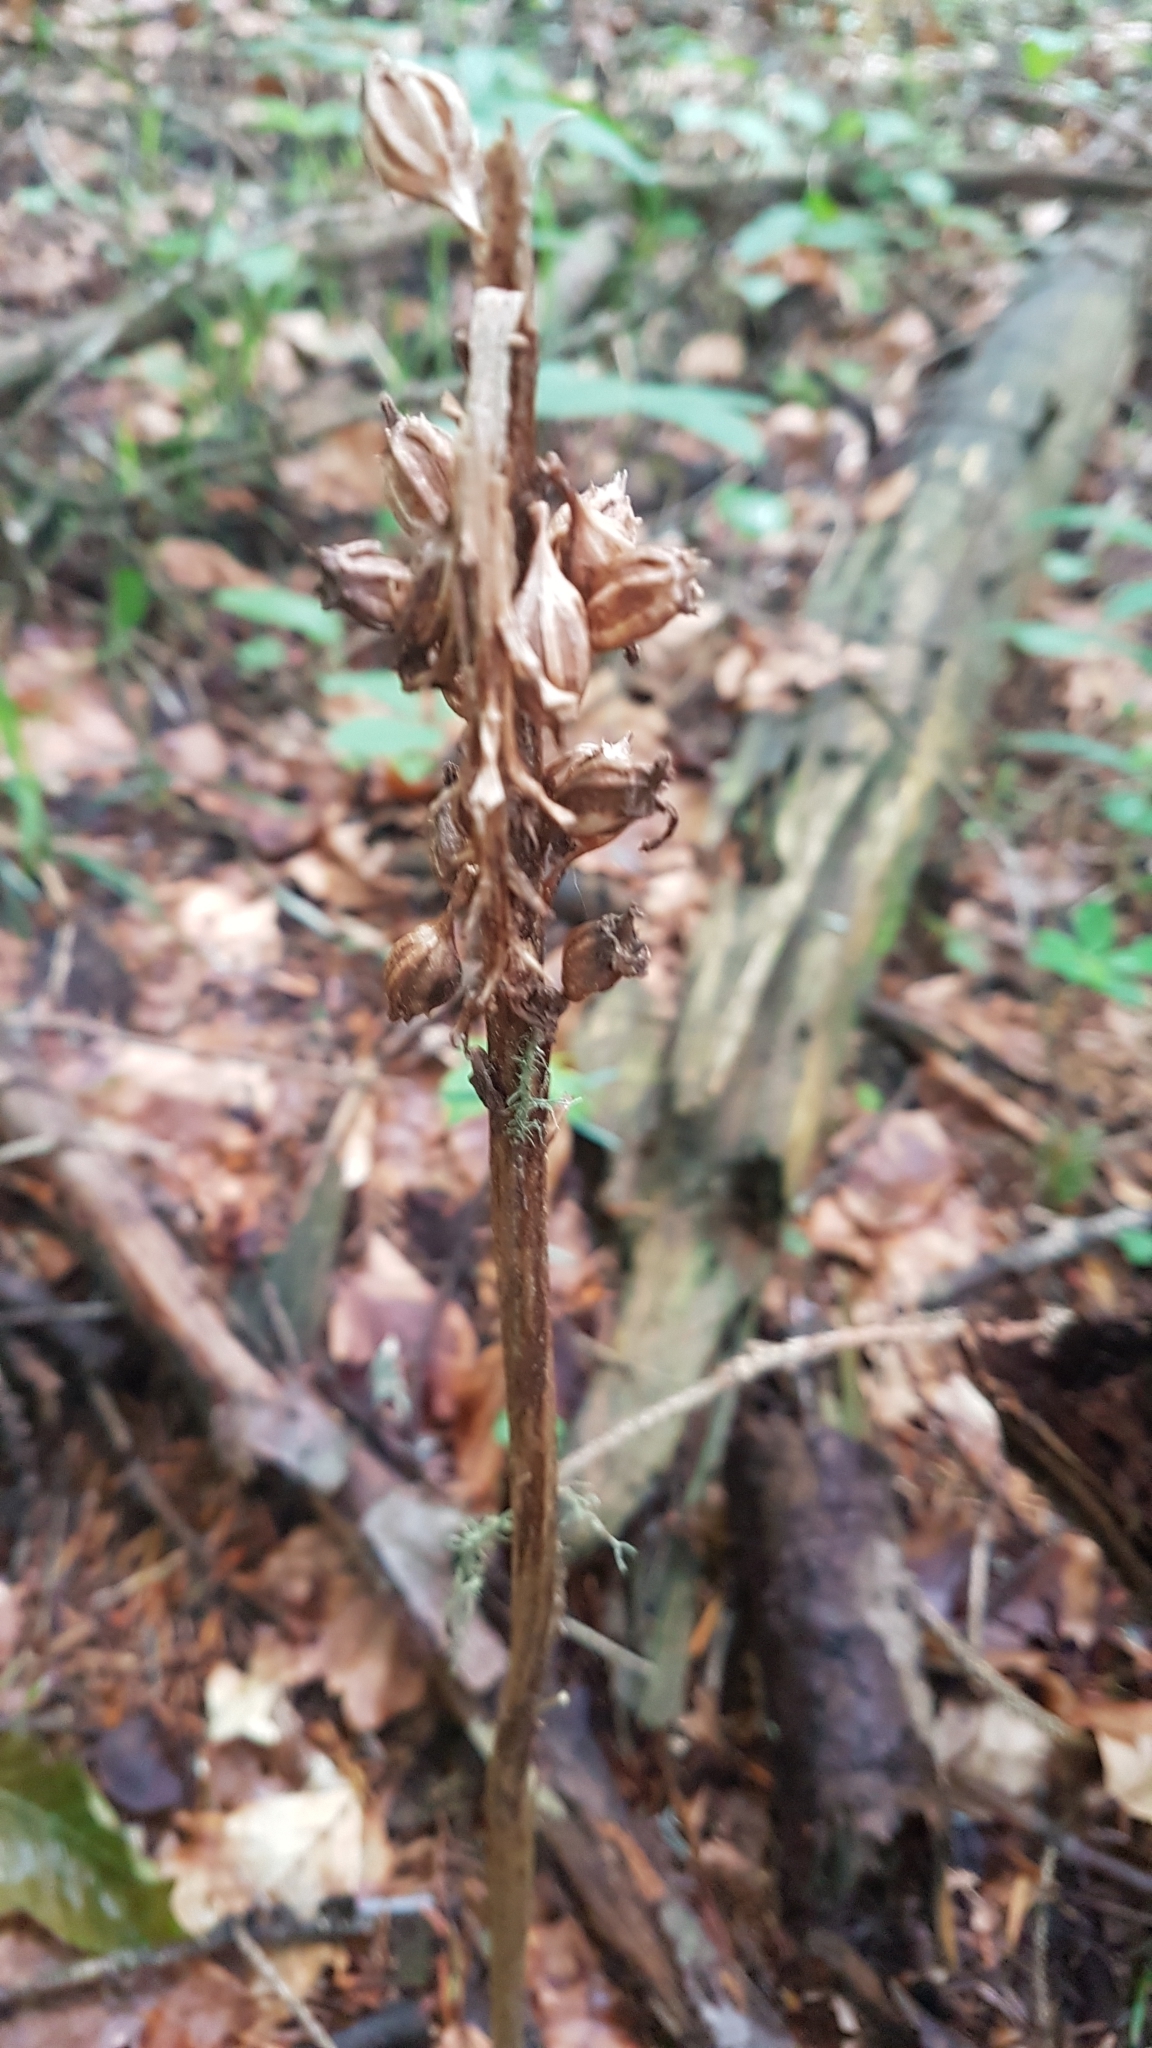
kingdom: Plantae
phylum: Tracheophyta
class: Liliopsida
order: Asparagales
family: Orchidaceae
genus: Neottia
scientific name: Neottia nidus-avis
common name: Bird's-nest orchid
